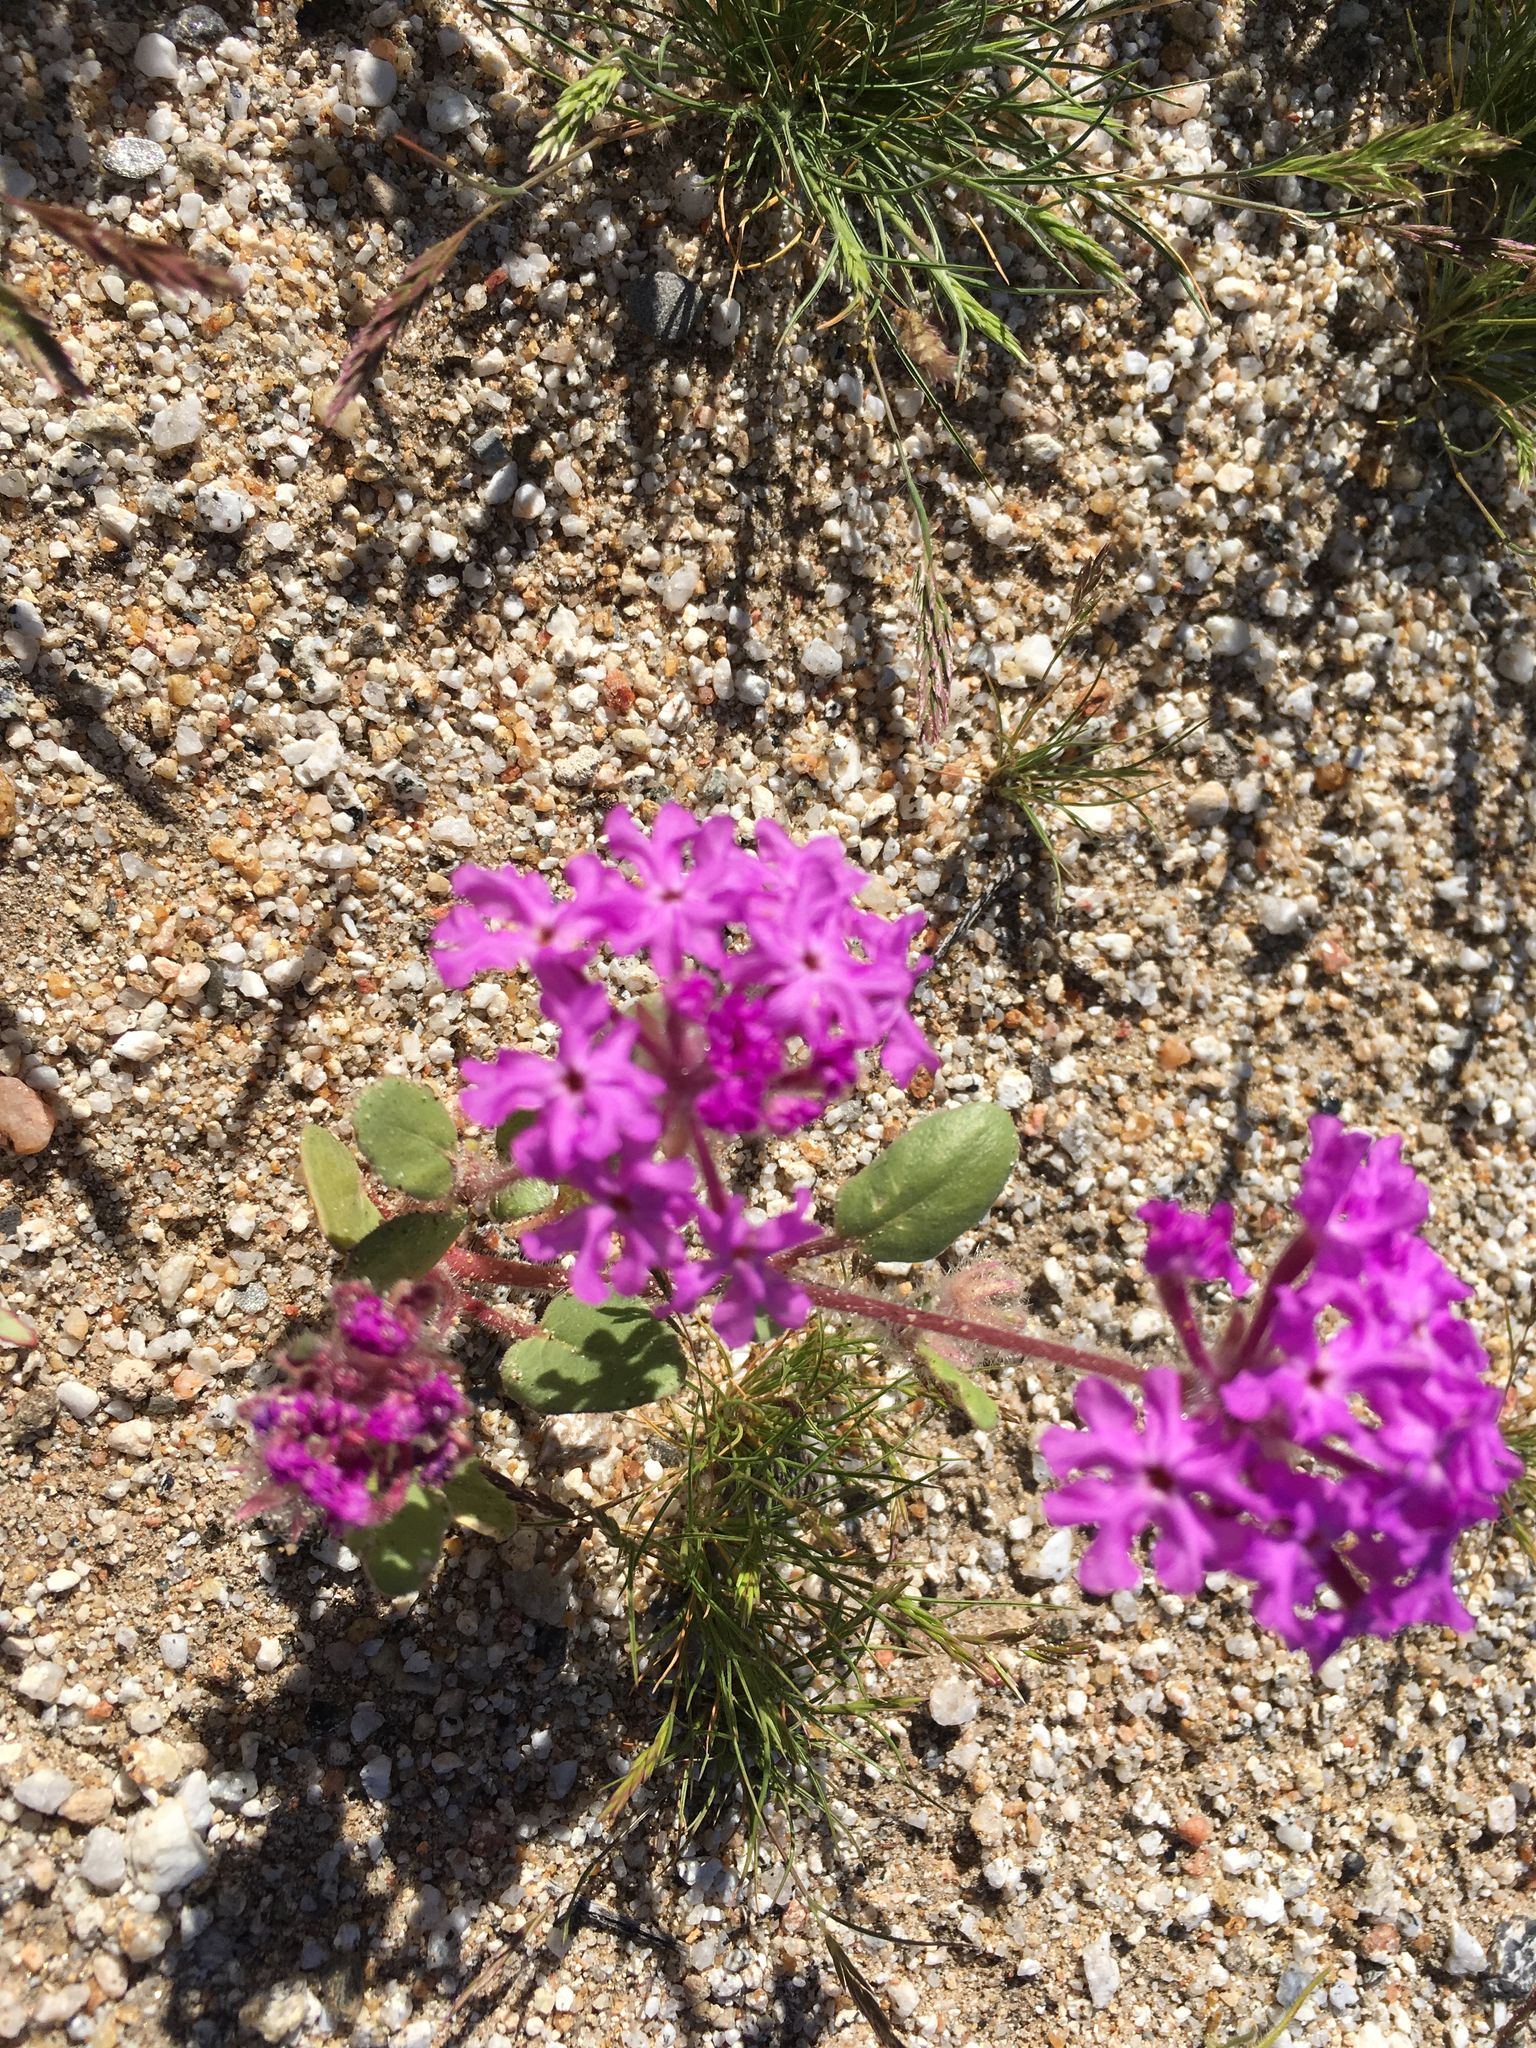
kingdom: Plantae
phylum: Tracheophyta
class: Magnoliopsida
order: Caryophyllales
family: Nyctaginaceae
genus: Abronia
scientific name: Abronia villosa
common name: Desert sand-verbena
